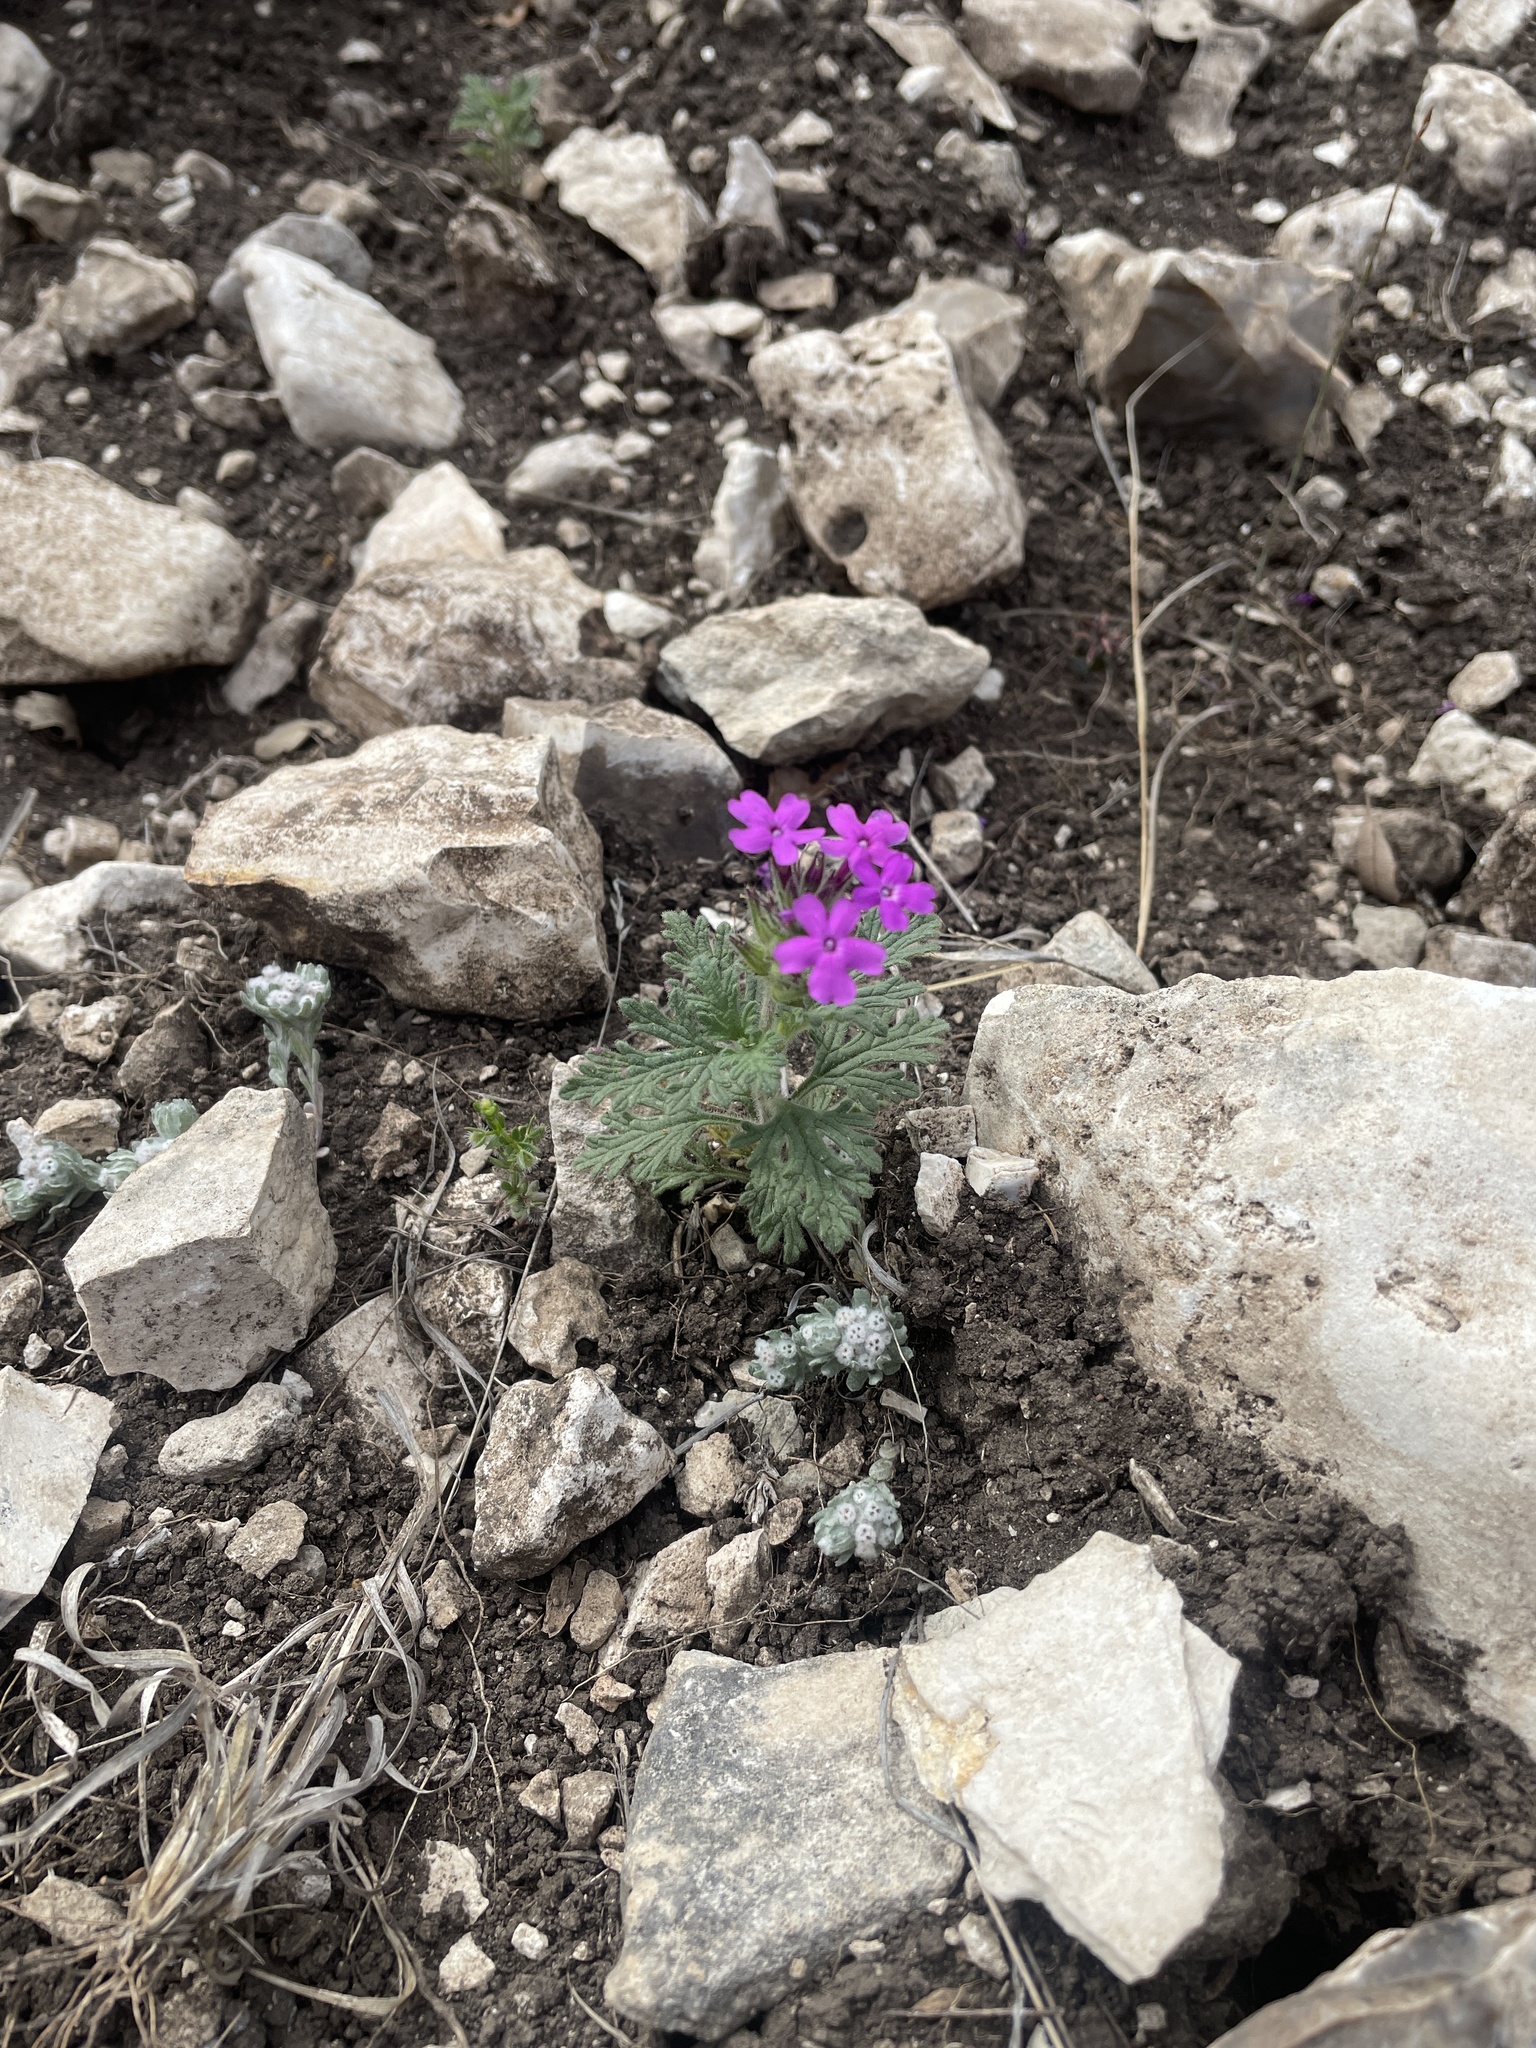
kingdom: Plantae
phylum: Tracheophyta
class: Magnoliopsida
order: Lamiales
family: Verbenaceae
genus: Verbena
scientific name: Verbena tumidula
